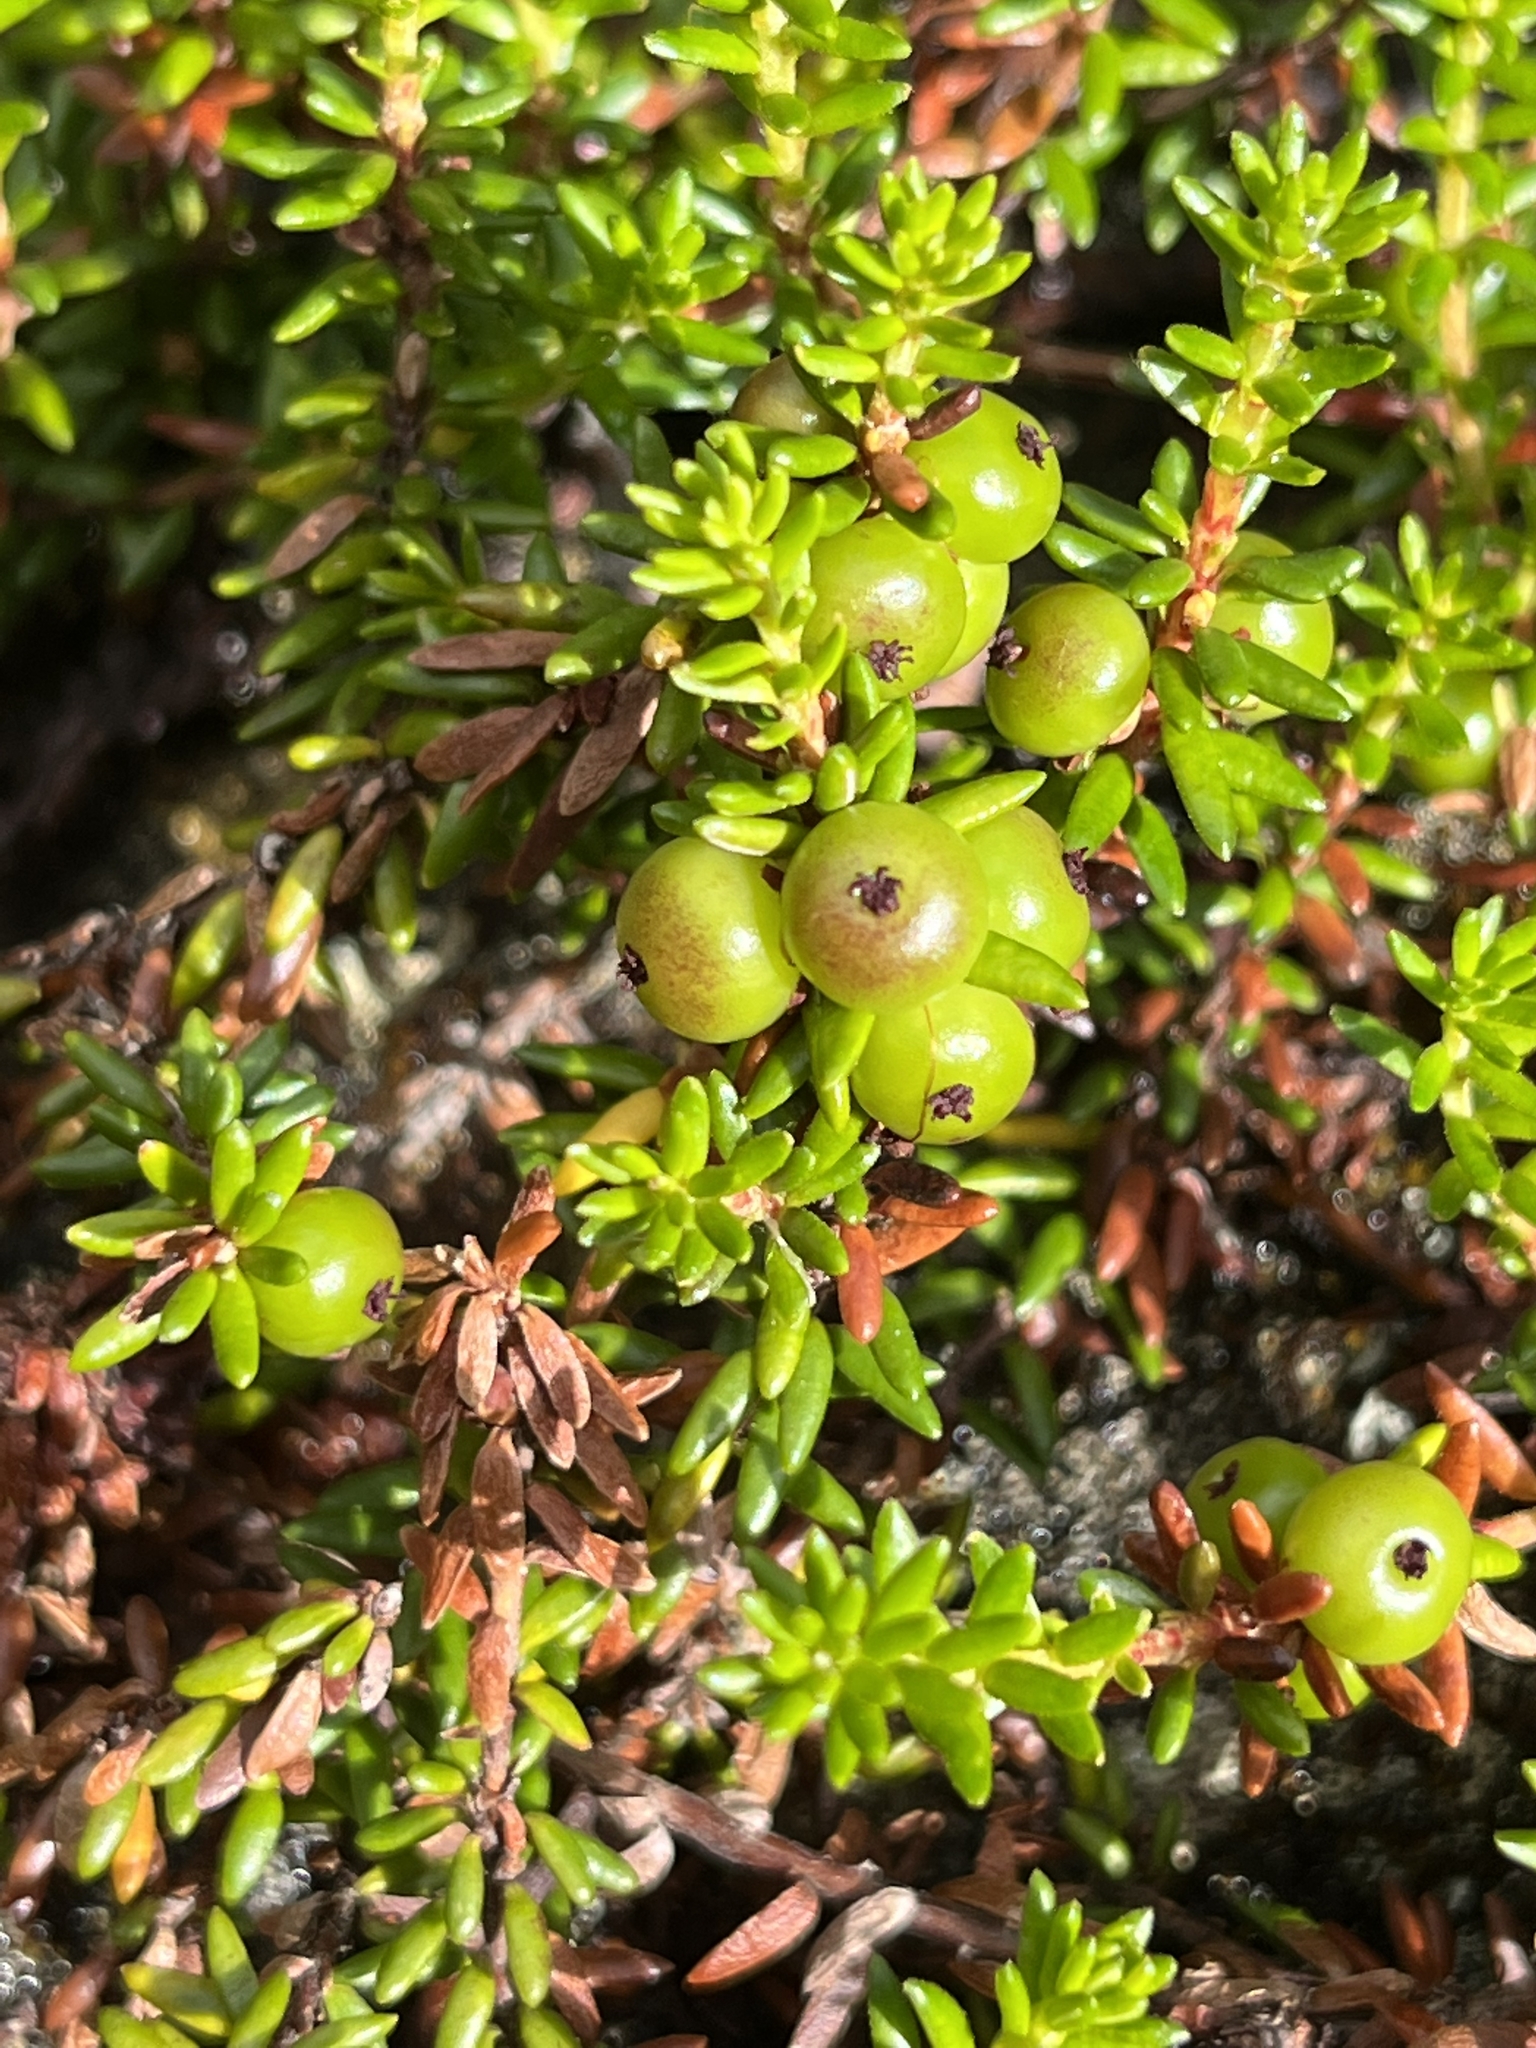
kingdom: Plantae
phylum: Tracheophyta
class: Magnoliopsida
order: Ericales
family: Ericaceae
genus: Empetrum
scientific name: Empetrum nigrum
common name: Black crowberry
